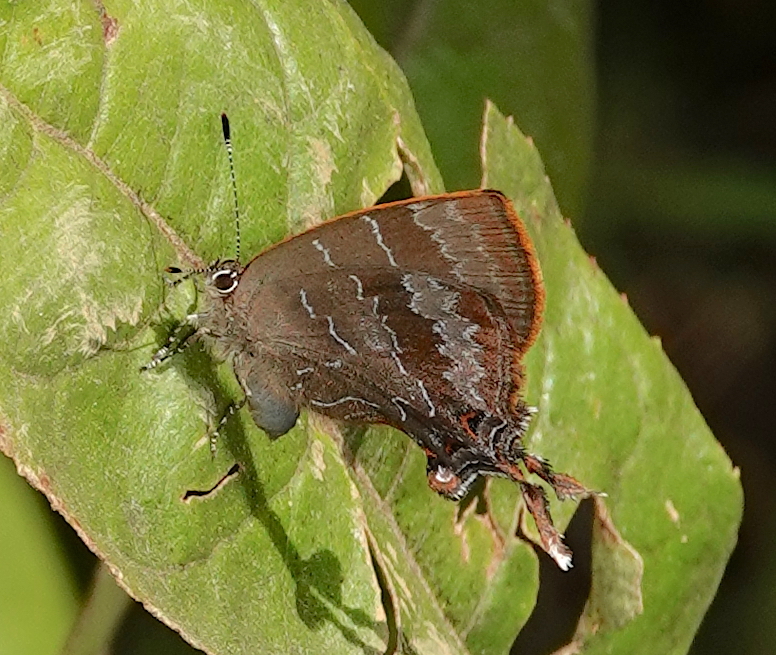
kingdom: Animalia
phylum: Arthropoda
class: Insecta
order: Lepidoptera
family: Lycaenidae
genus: Johnsonita
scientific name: Johnsonita pardoa
